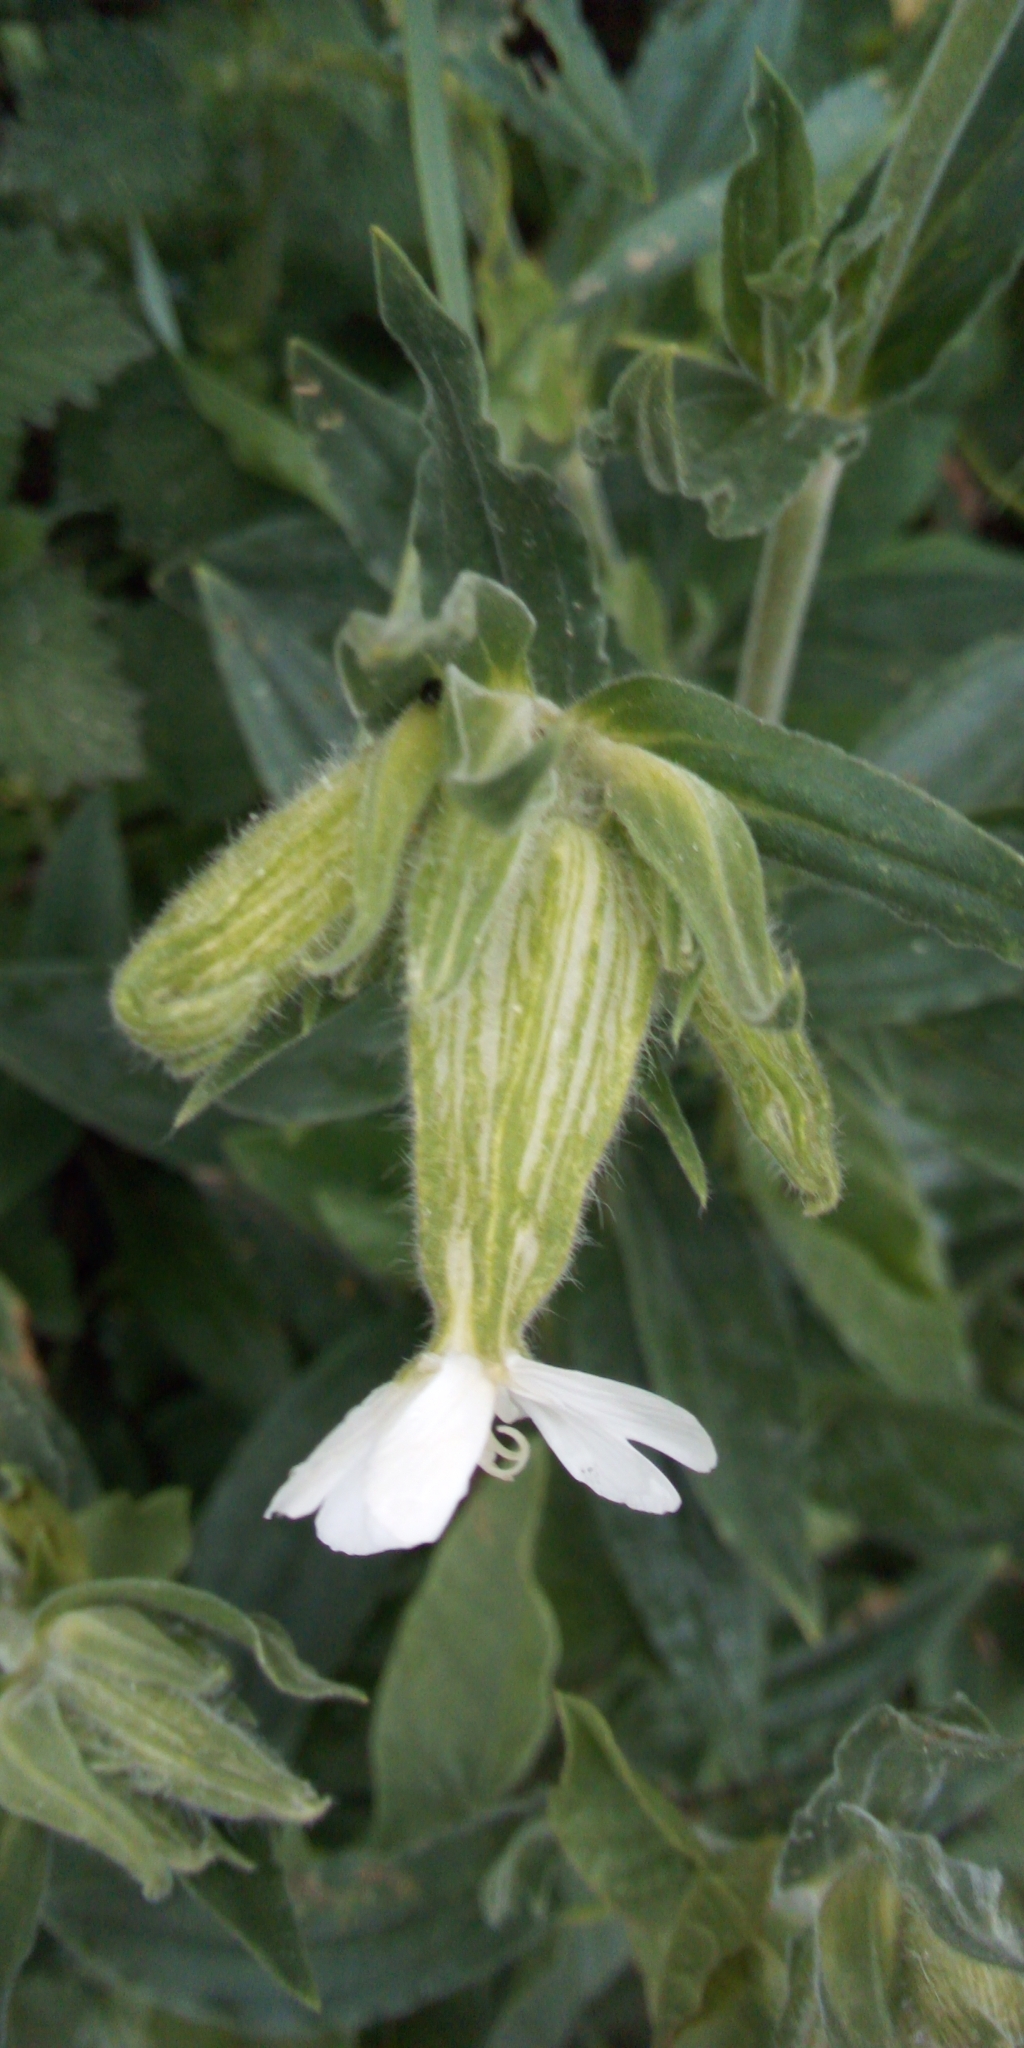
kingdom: Plantae
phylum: Tracheophyta
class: Magnoliopsida
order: Caryophyllales
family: Caryophyllaceae
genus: Silene
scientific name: Silene latifolia
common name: White campion
